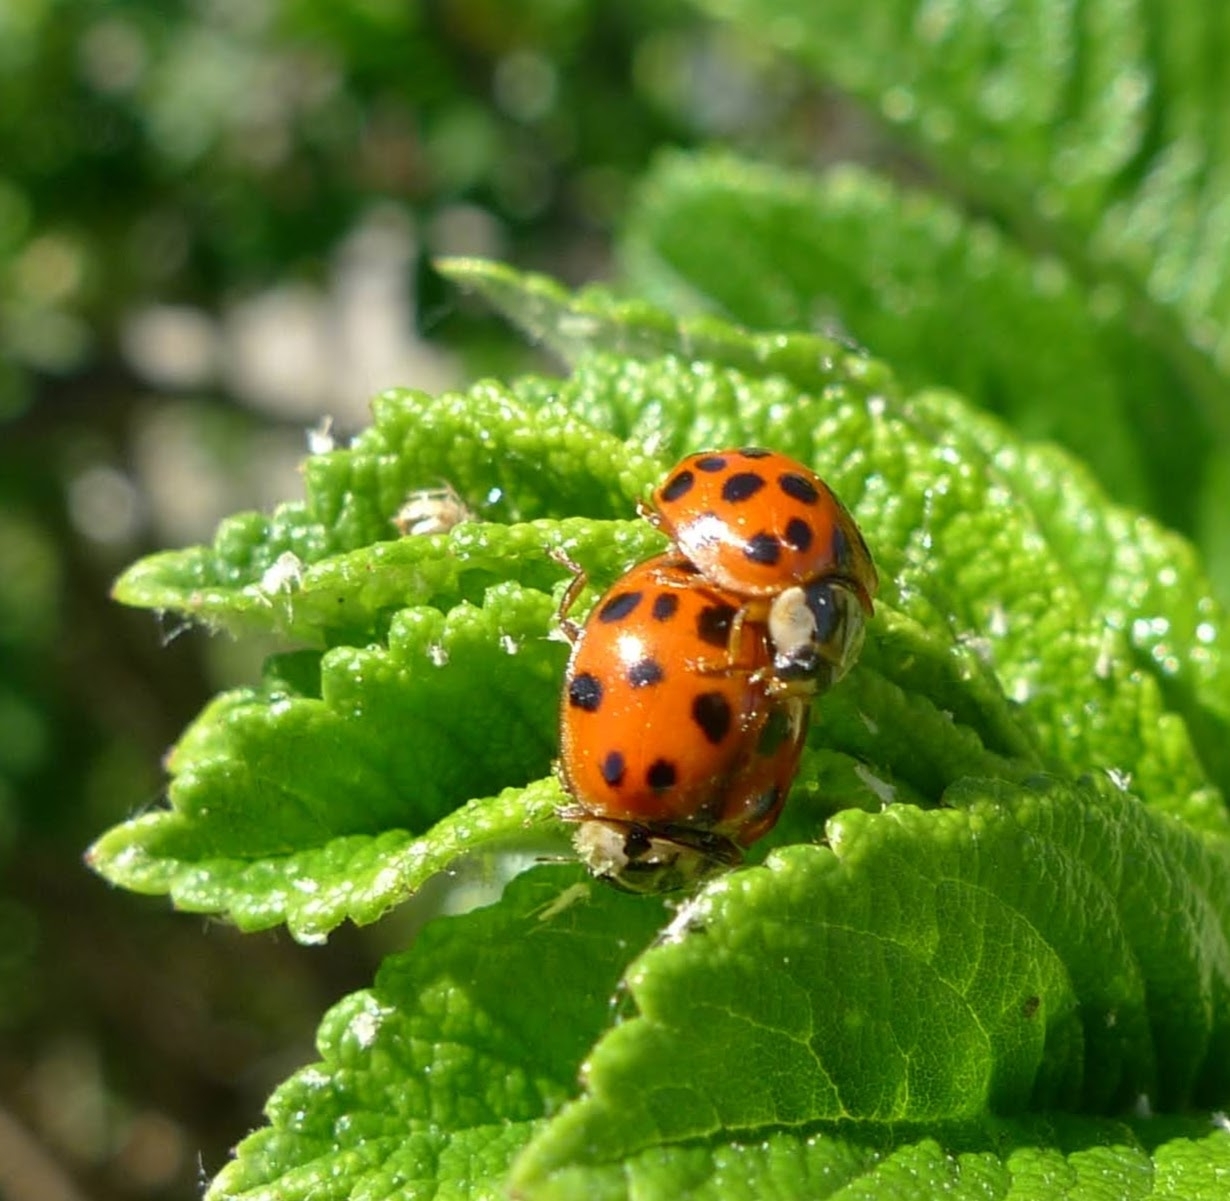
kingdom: Animalia
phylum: Arthropoda
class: Insecta
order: Coleoptera
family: Coccinellidae
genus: Harmonia
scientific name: Harmonia axyridis
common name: Harlequin ladybird
